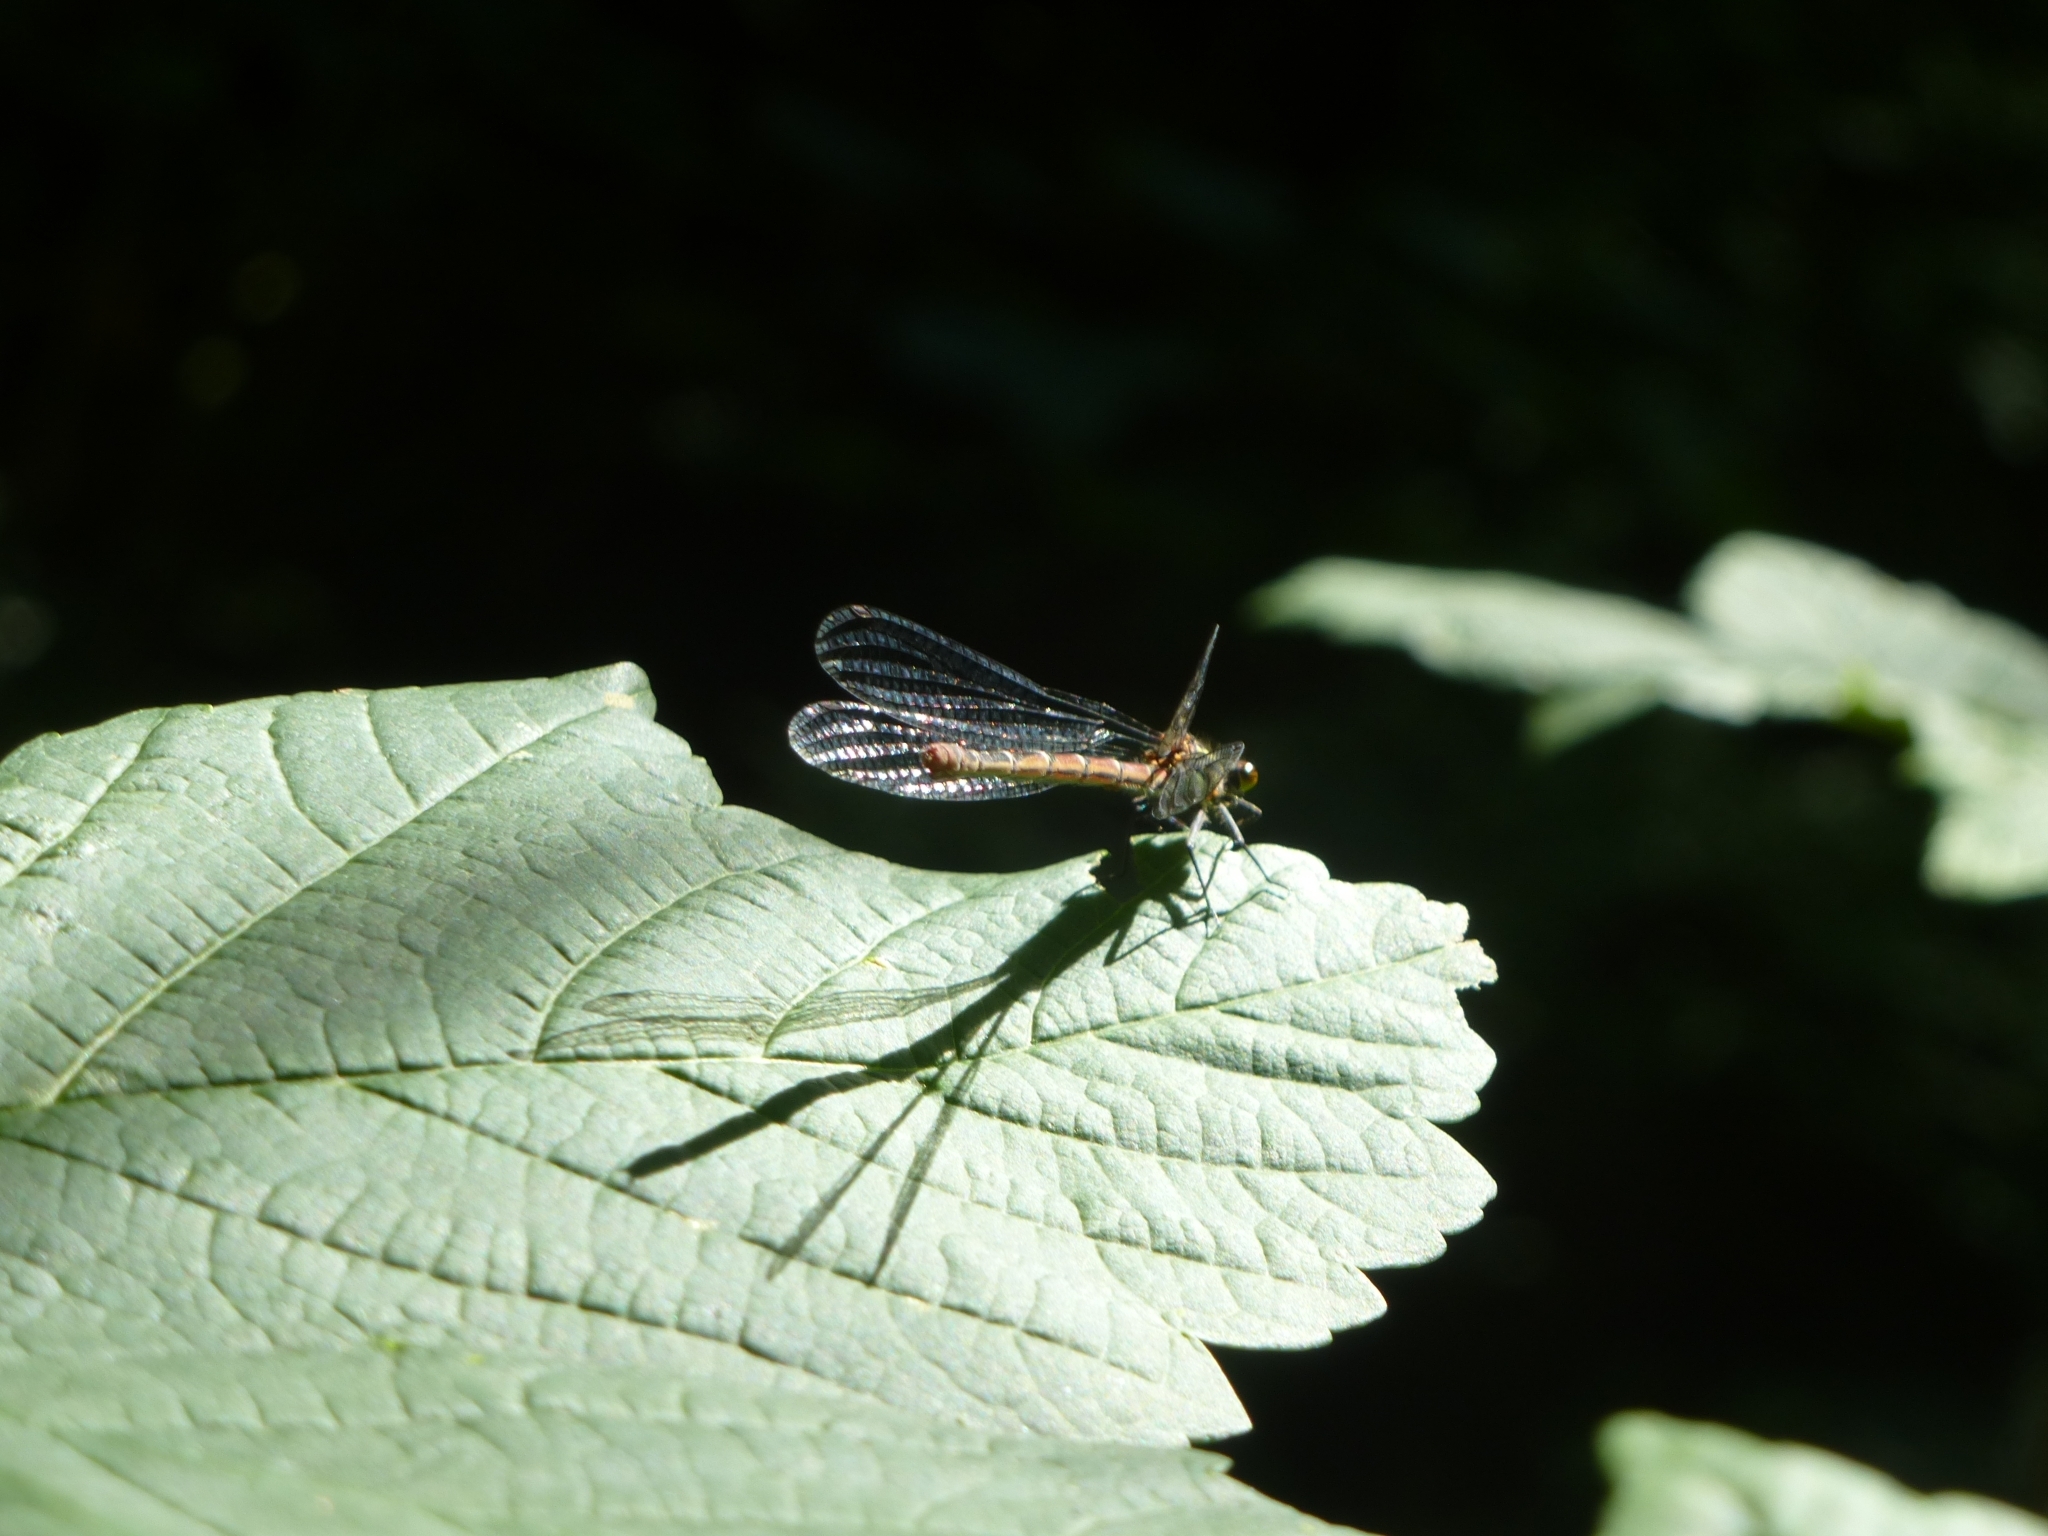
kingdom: Animalia
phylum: Arthropoda
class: Insecta
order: Odonata
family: Coenagrionidae
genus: Pyrrhosoma
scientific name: Pyrrhosoma nymphula
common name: Large red damsel
